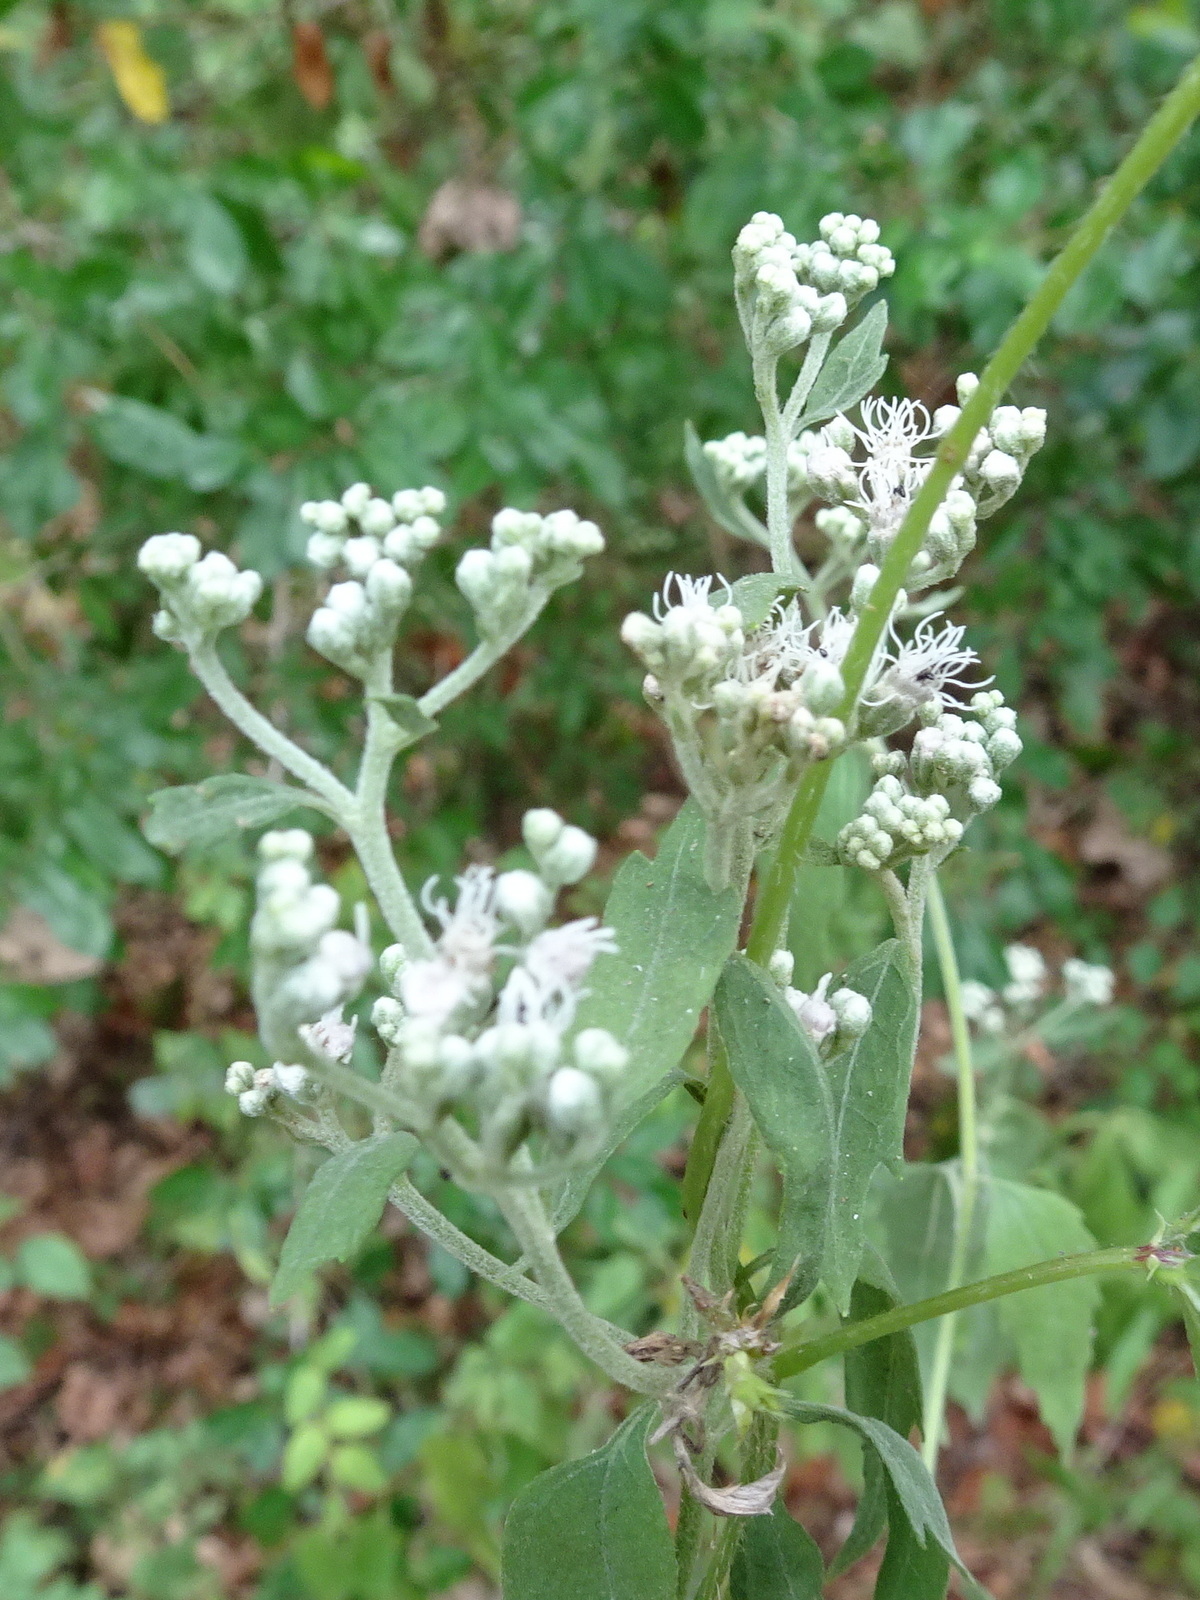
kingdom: Plantae
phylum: Tracheophyta
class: Magnoliopsida
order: Asterales
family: Asteraceae
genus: Eupatorium
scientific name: Eupatorium serotinum
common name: Late boneset
